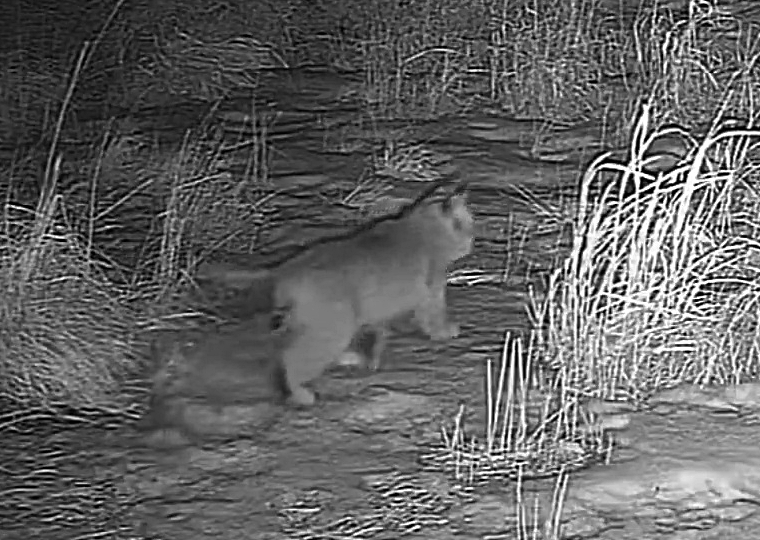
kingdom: Animalia
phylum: Chordata
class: Mammalia
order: Carnivora
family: Felidae
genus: Lynx
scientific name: Lynx rufus
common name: Bobcat
